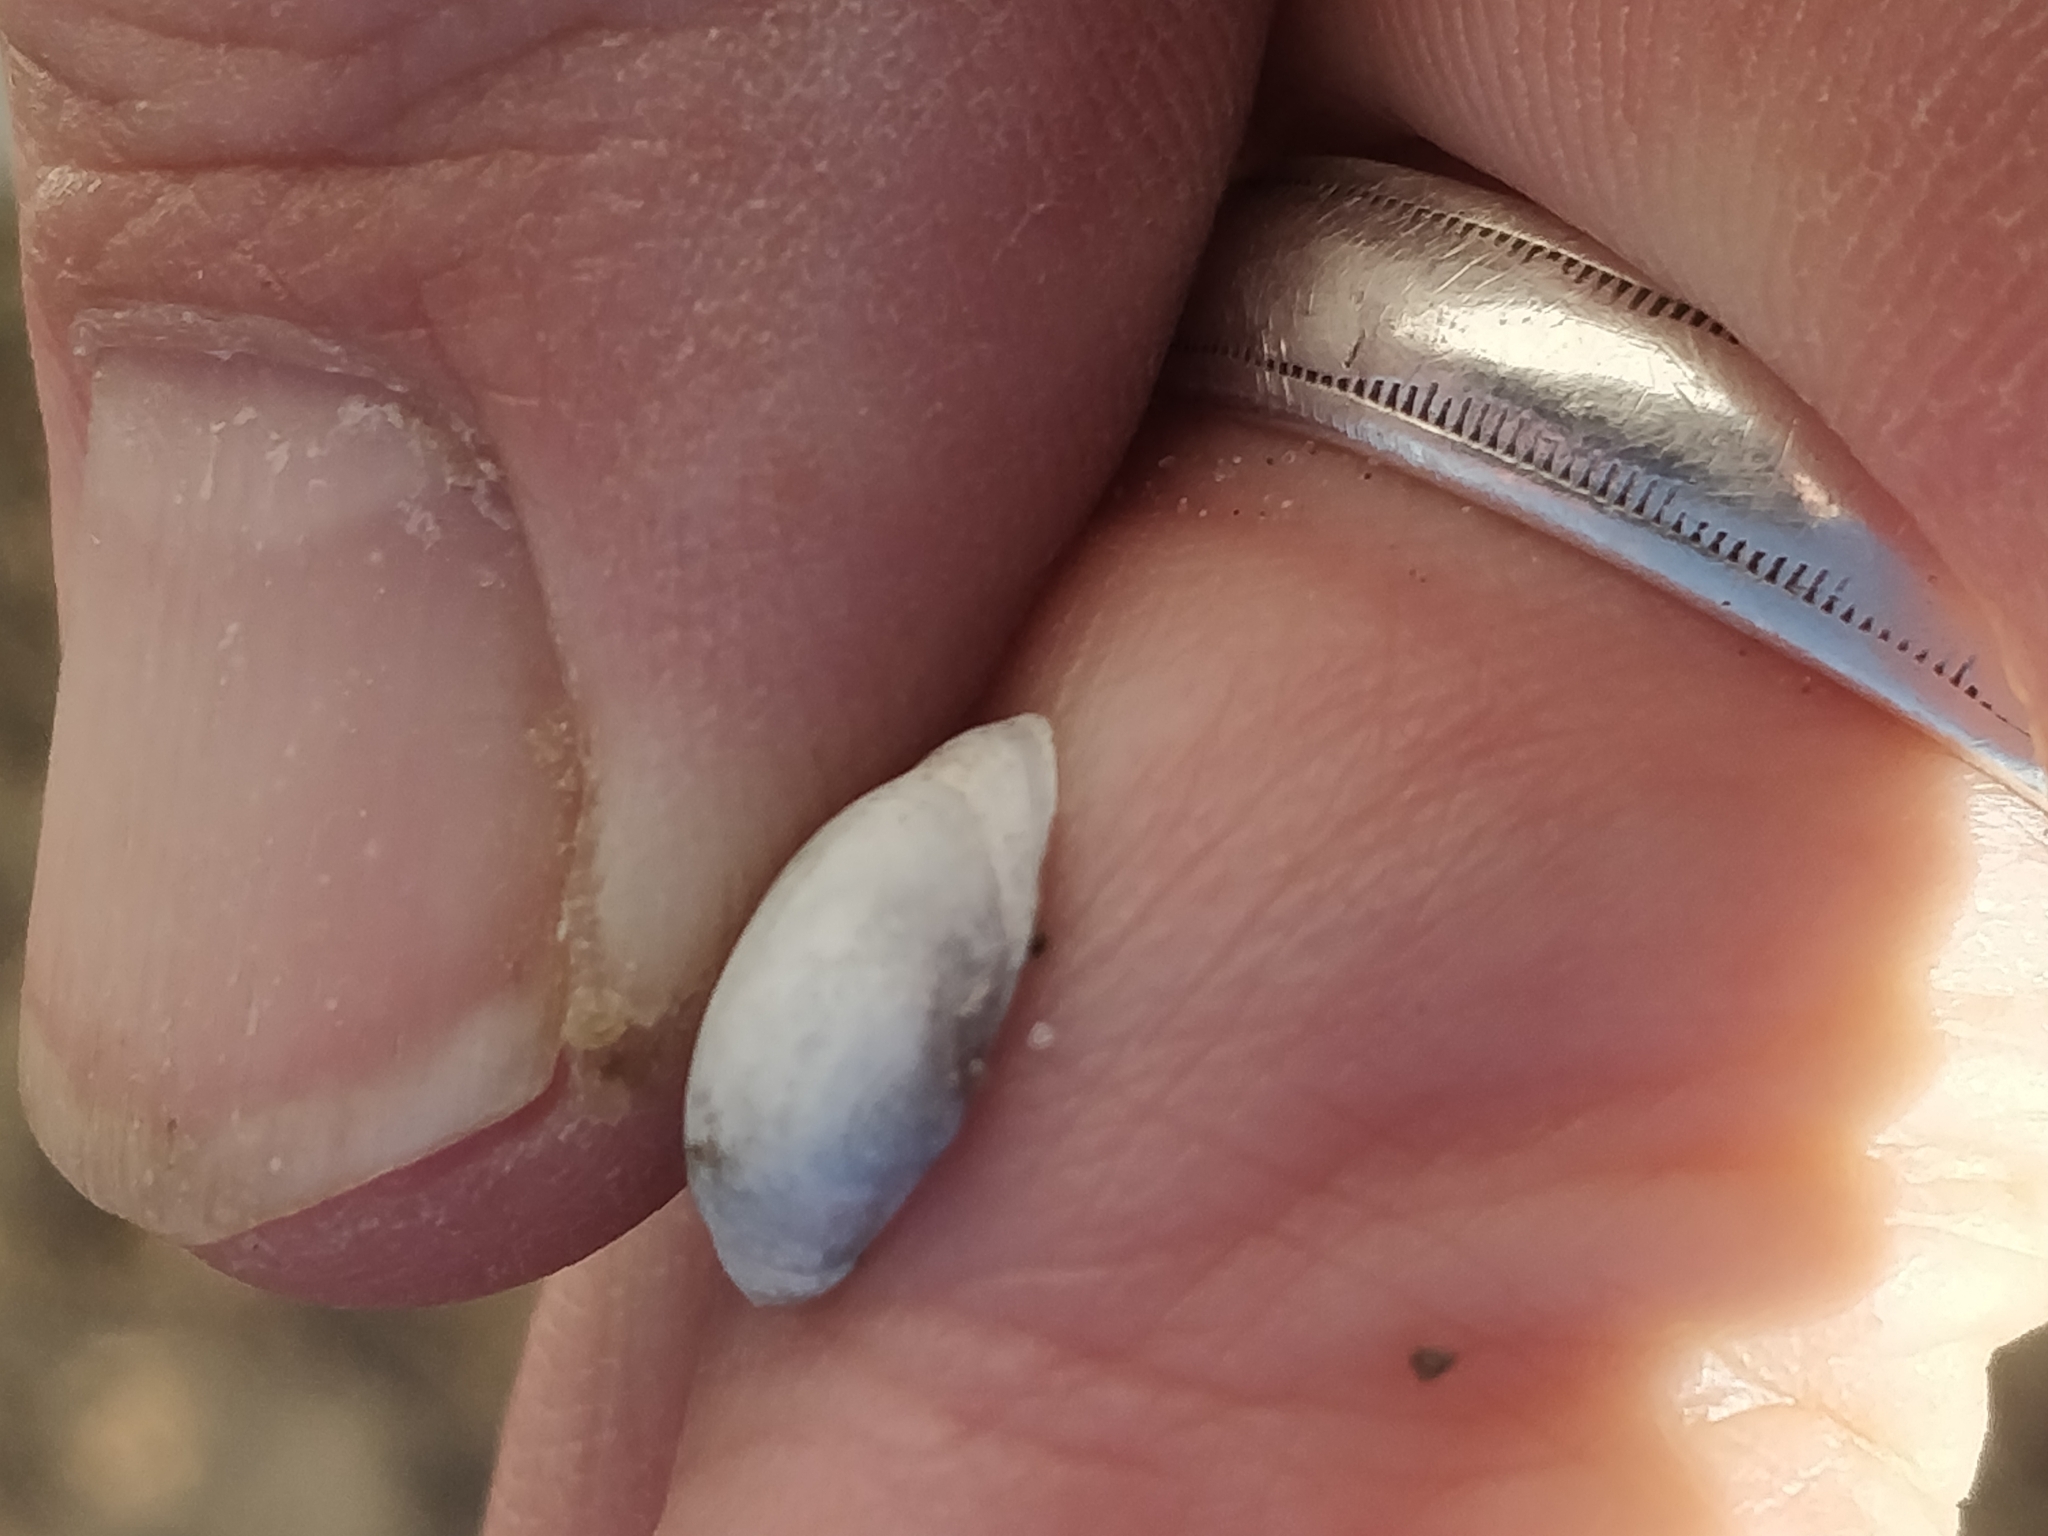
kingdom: Animalia
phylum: Mollusca
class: Bivalvia
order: Sphaeriida
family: Sphaeriidae
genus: Sphaerium
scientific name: Sphaerium striatinum
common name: Striated fingernailclam
